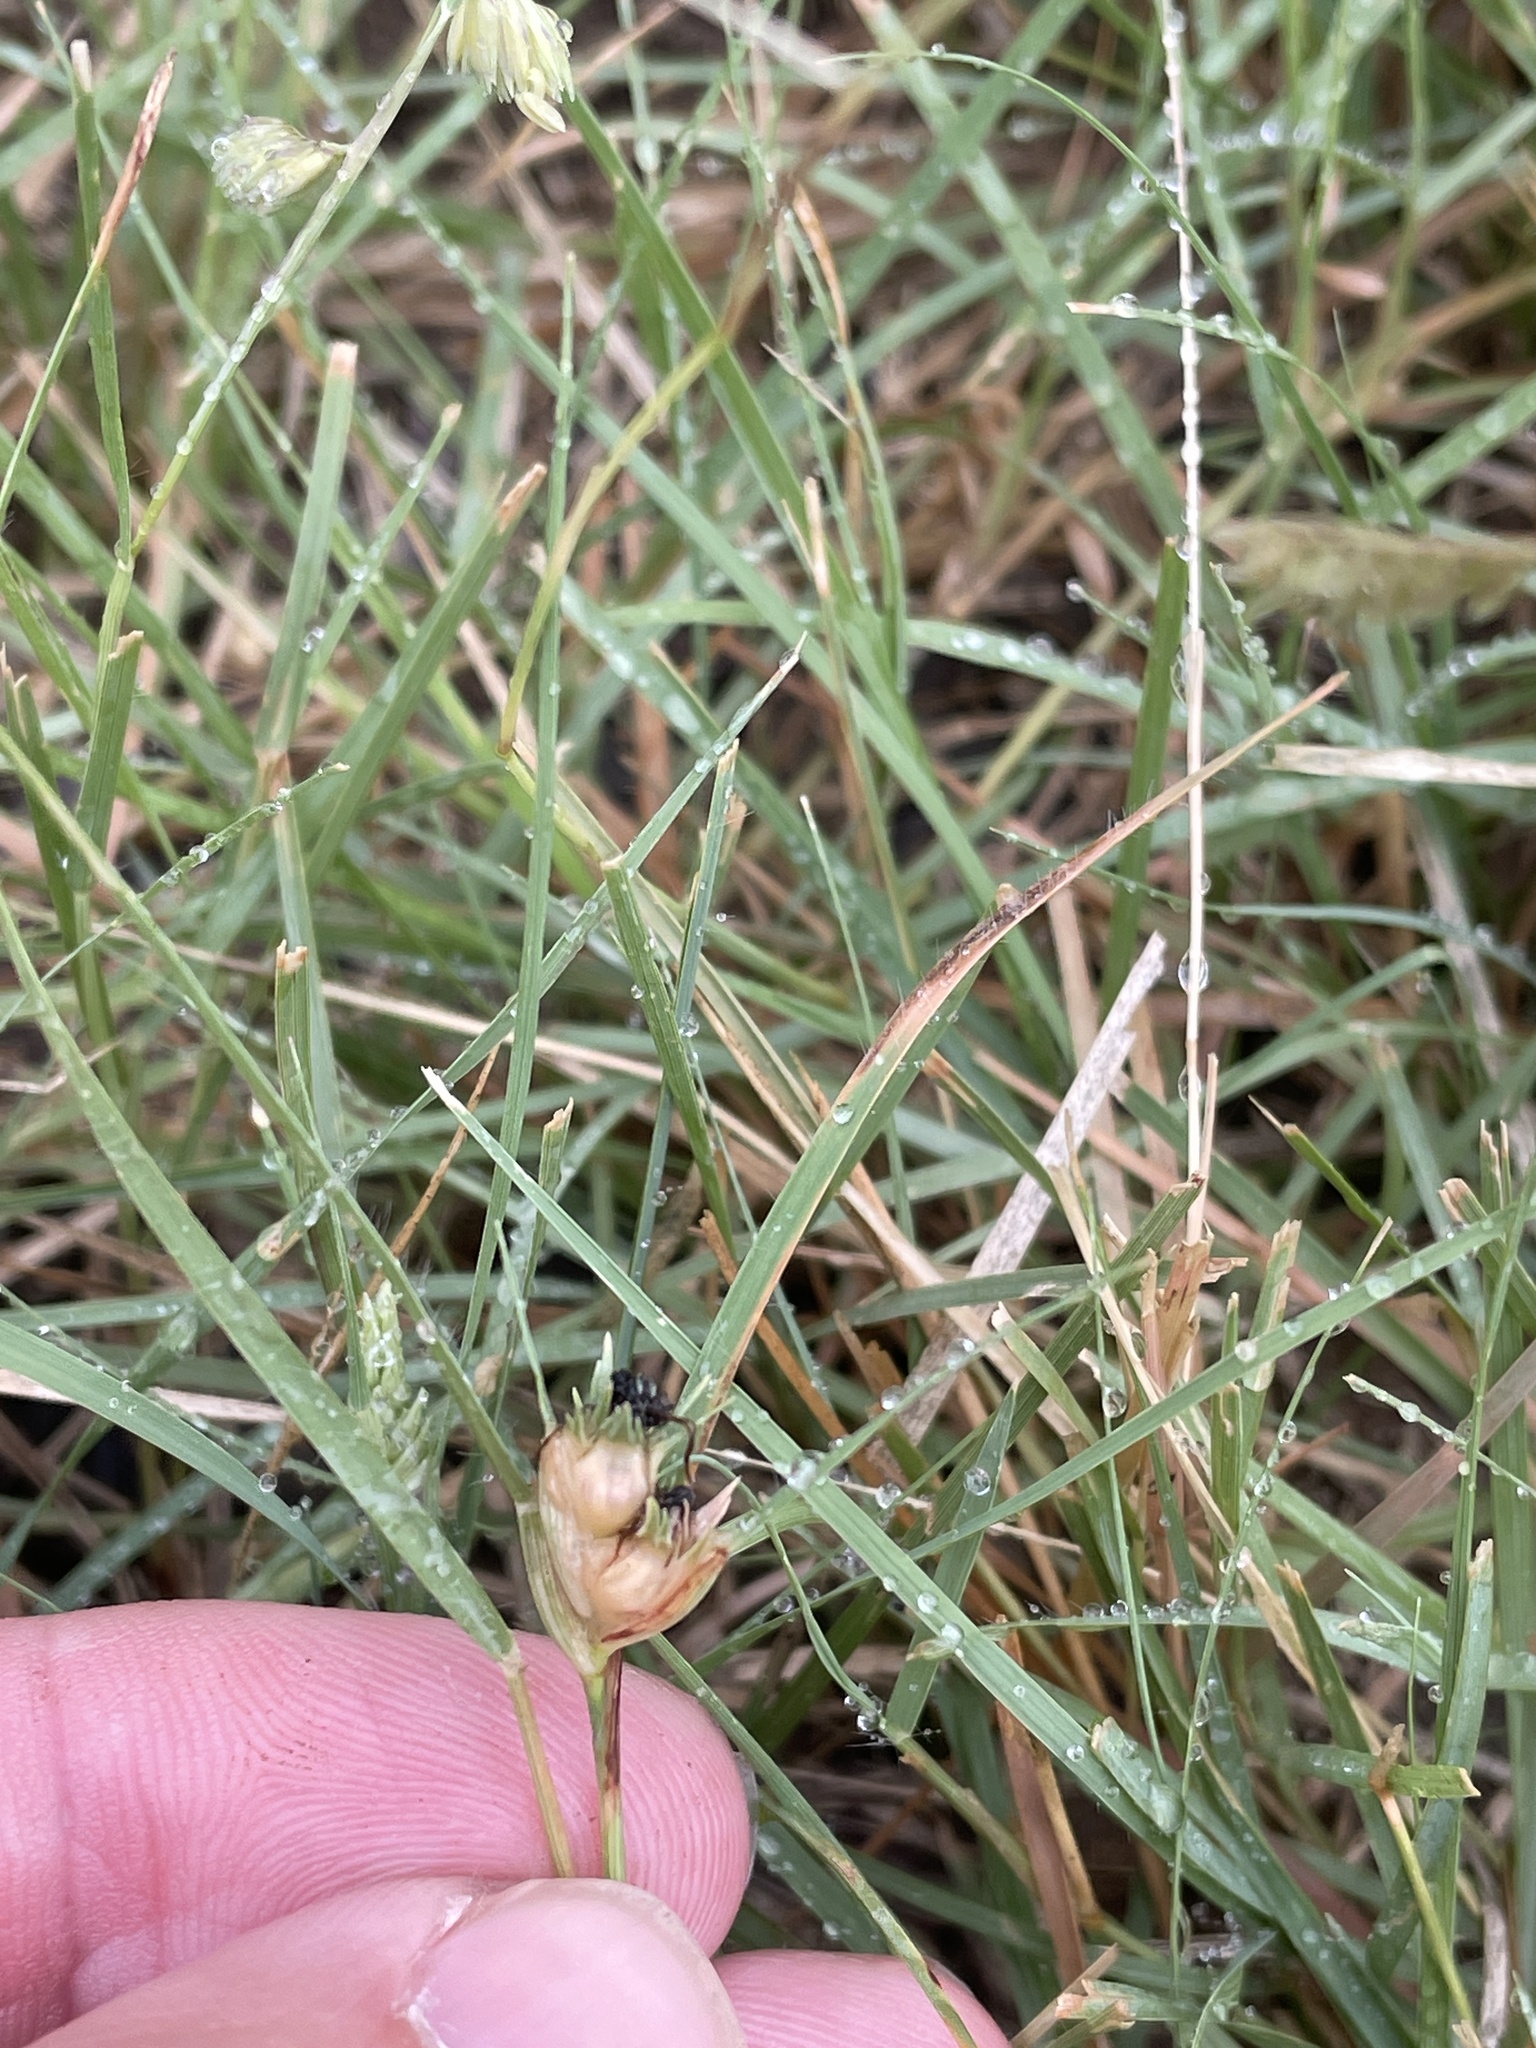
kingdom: Plantae
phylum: Tracheophyta
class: Liliopsida
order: Poales
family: Poaceae
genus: Bouteloua
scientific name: Bouteloua dactyloides
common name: Buffalo grass
